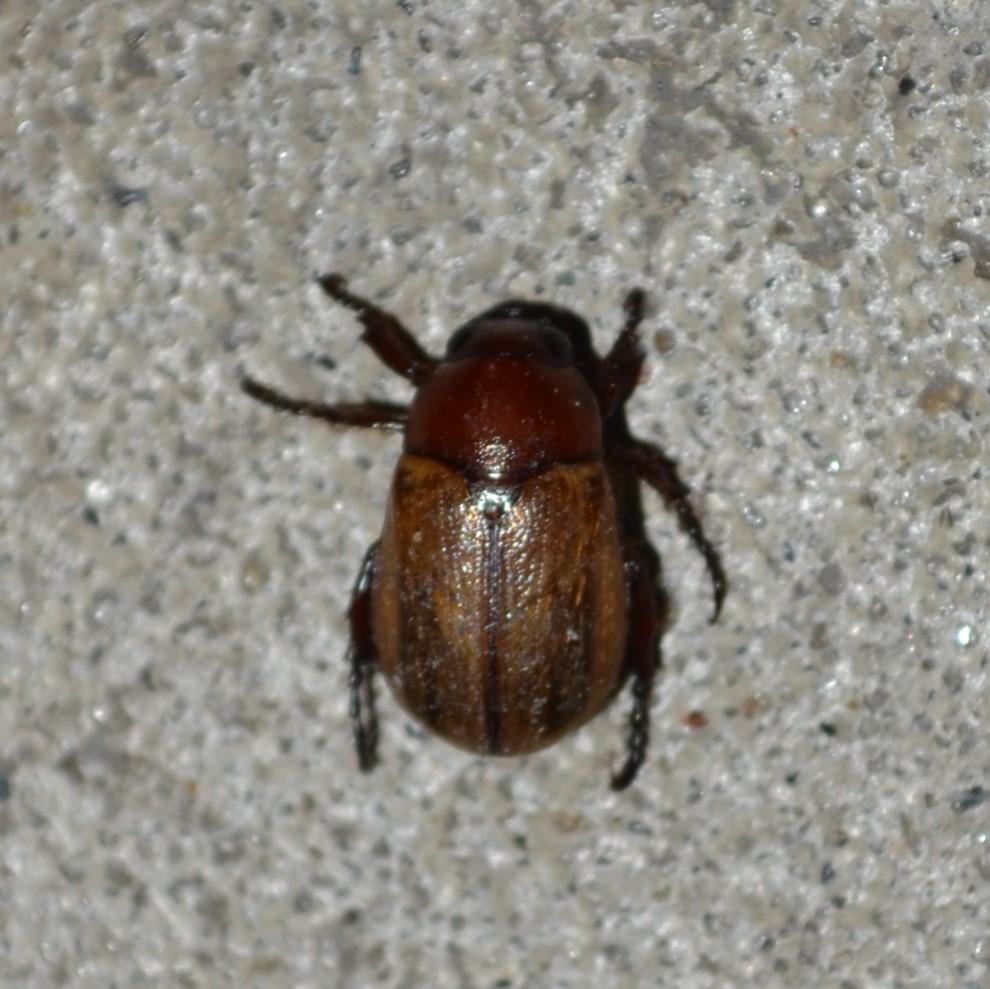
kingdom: Animalia
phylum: Arthropoda
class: Insecta
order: Coleoptera
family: Scarabaeidae
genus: Paranomala
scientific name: Paranomala flavipennis
